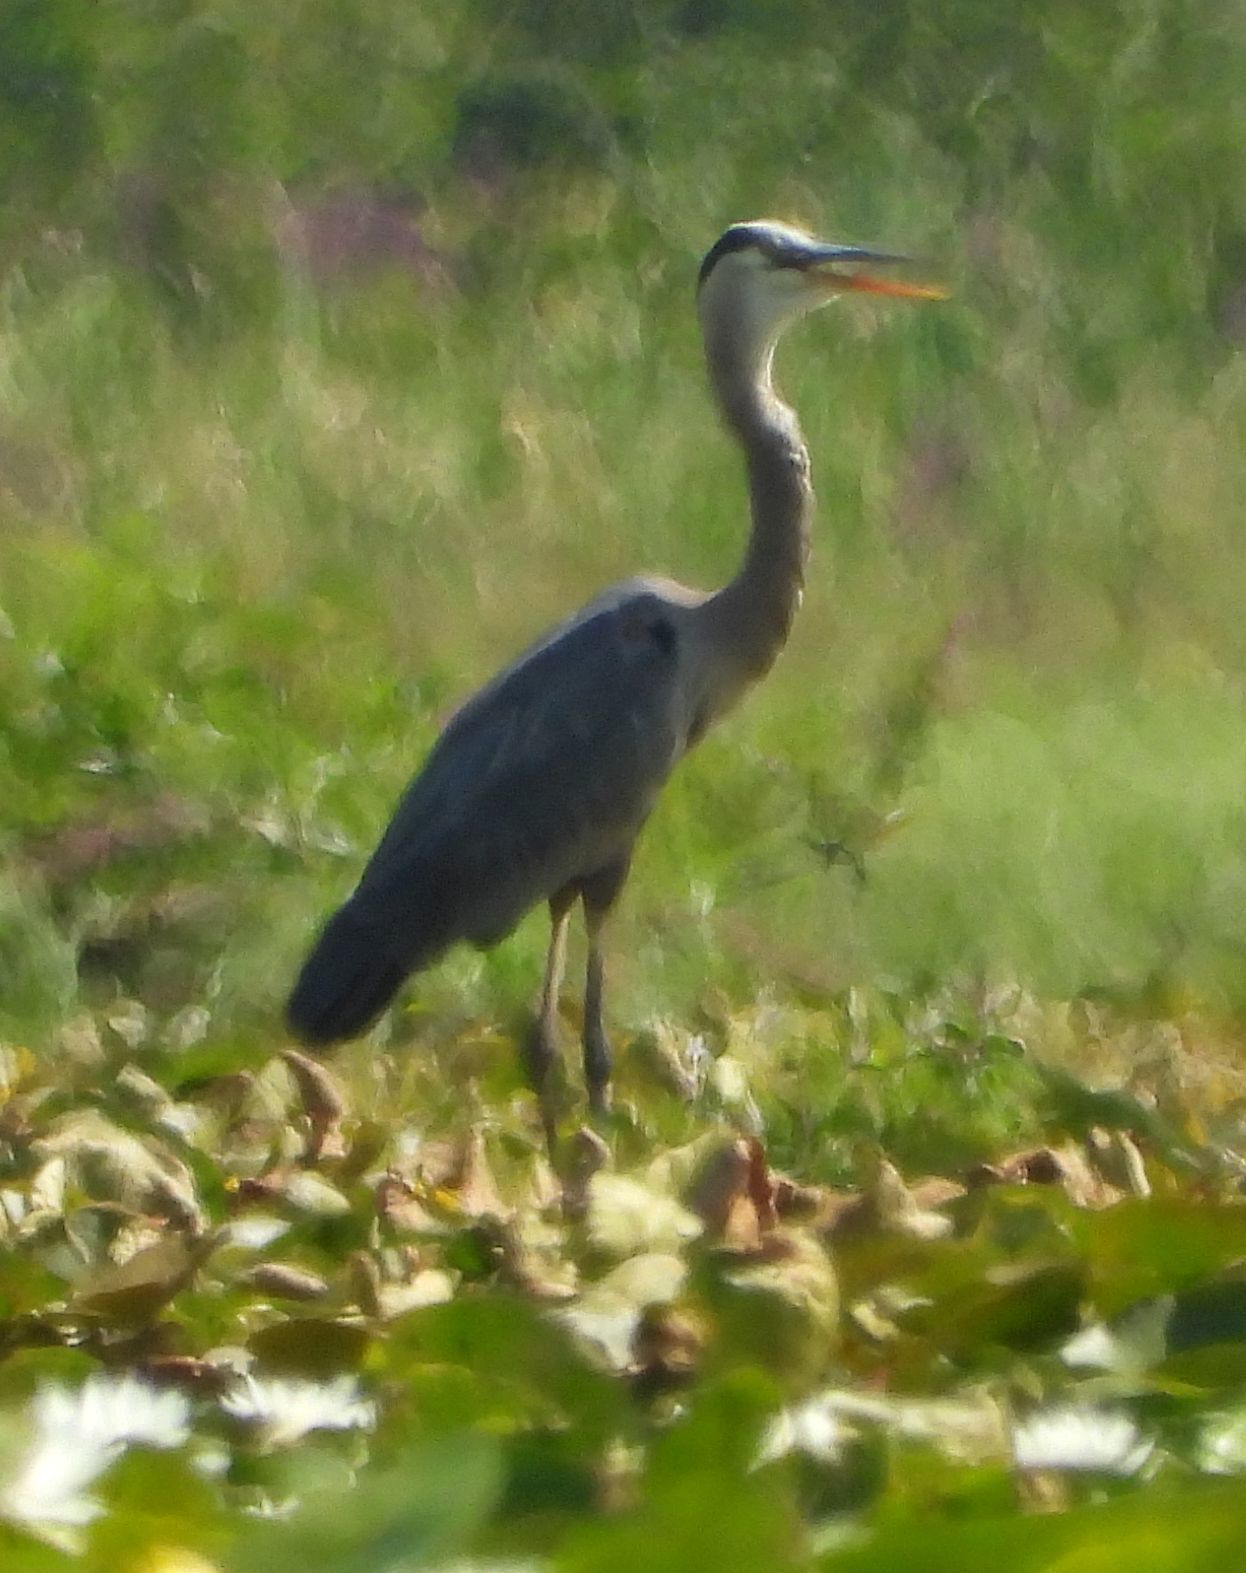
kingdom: Animalia
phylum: Chordata
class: Aves
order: Pelecaniformes
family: Ardeidae
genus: Ardea
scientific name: Ardea herodias
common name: Great blue heron
